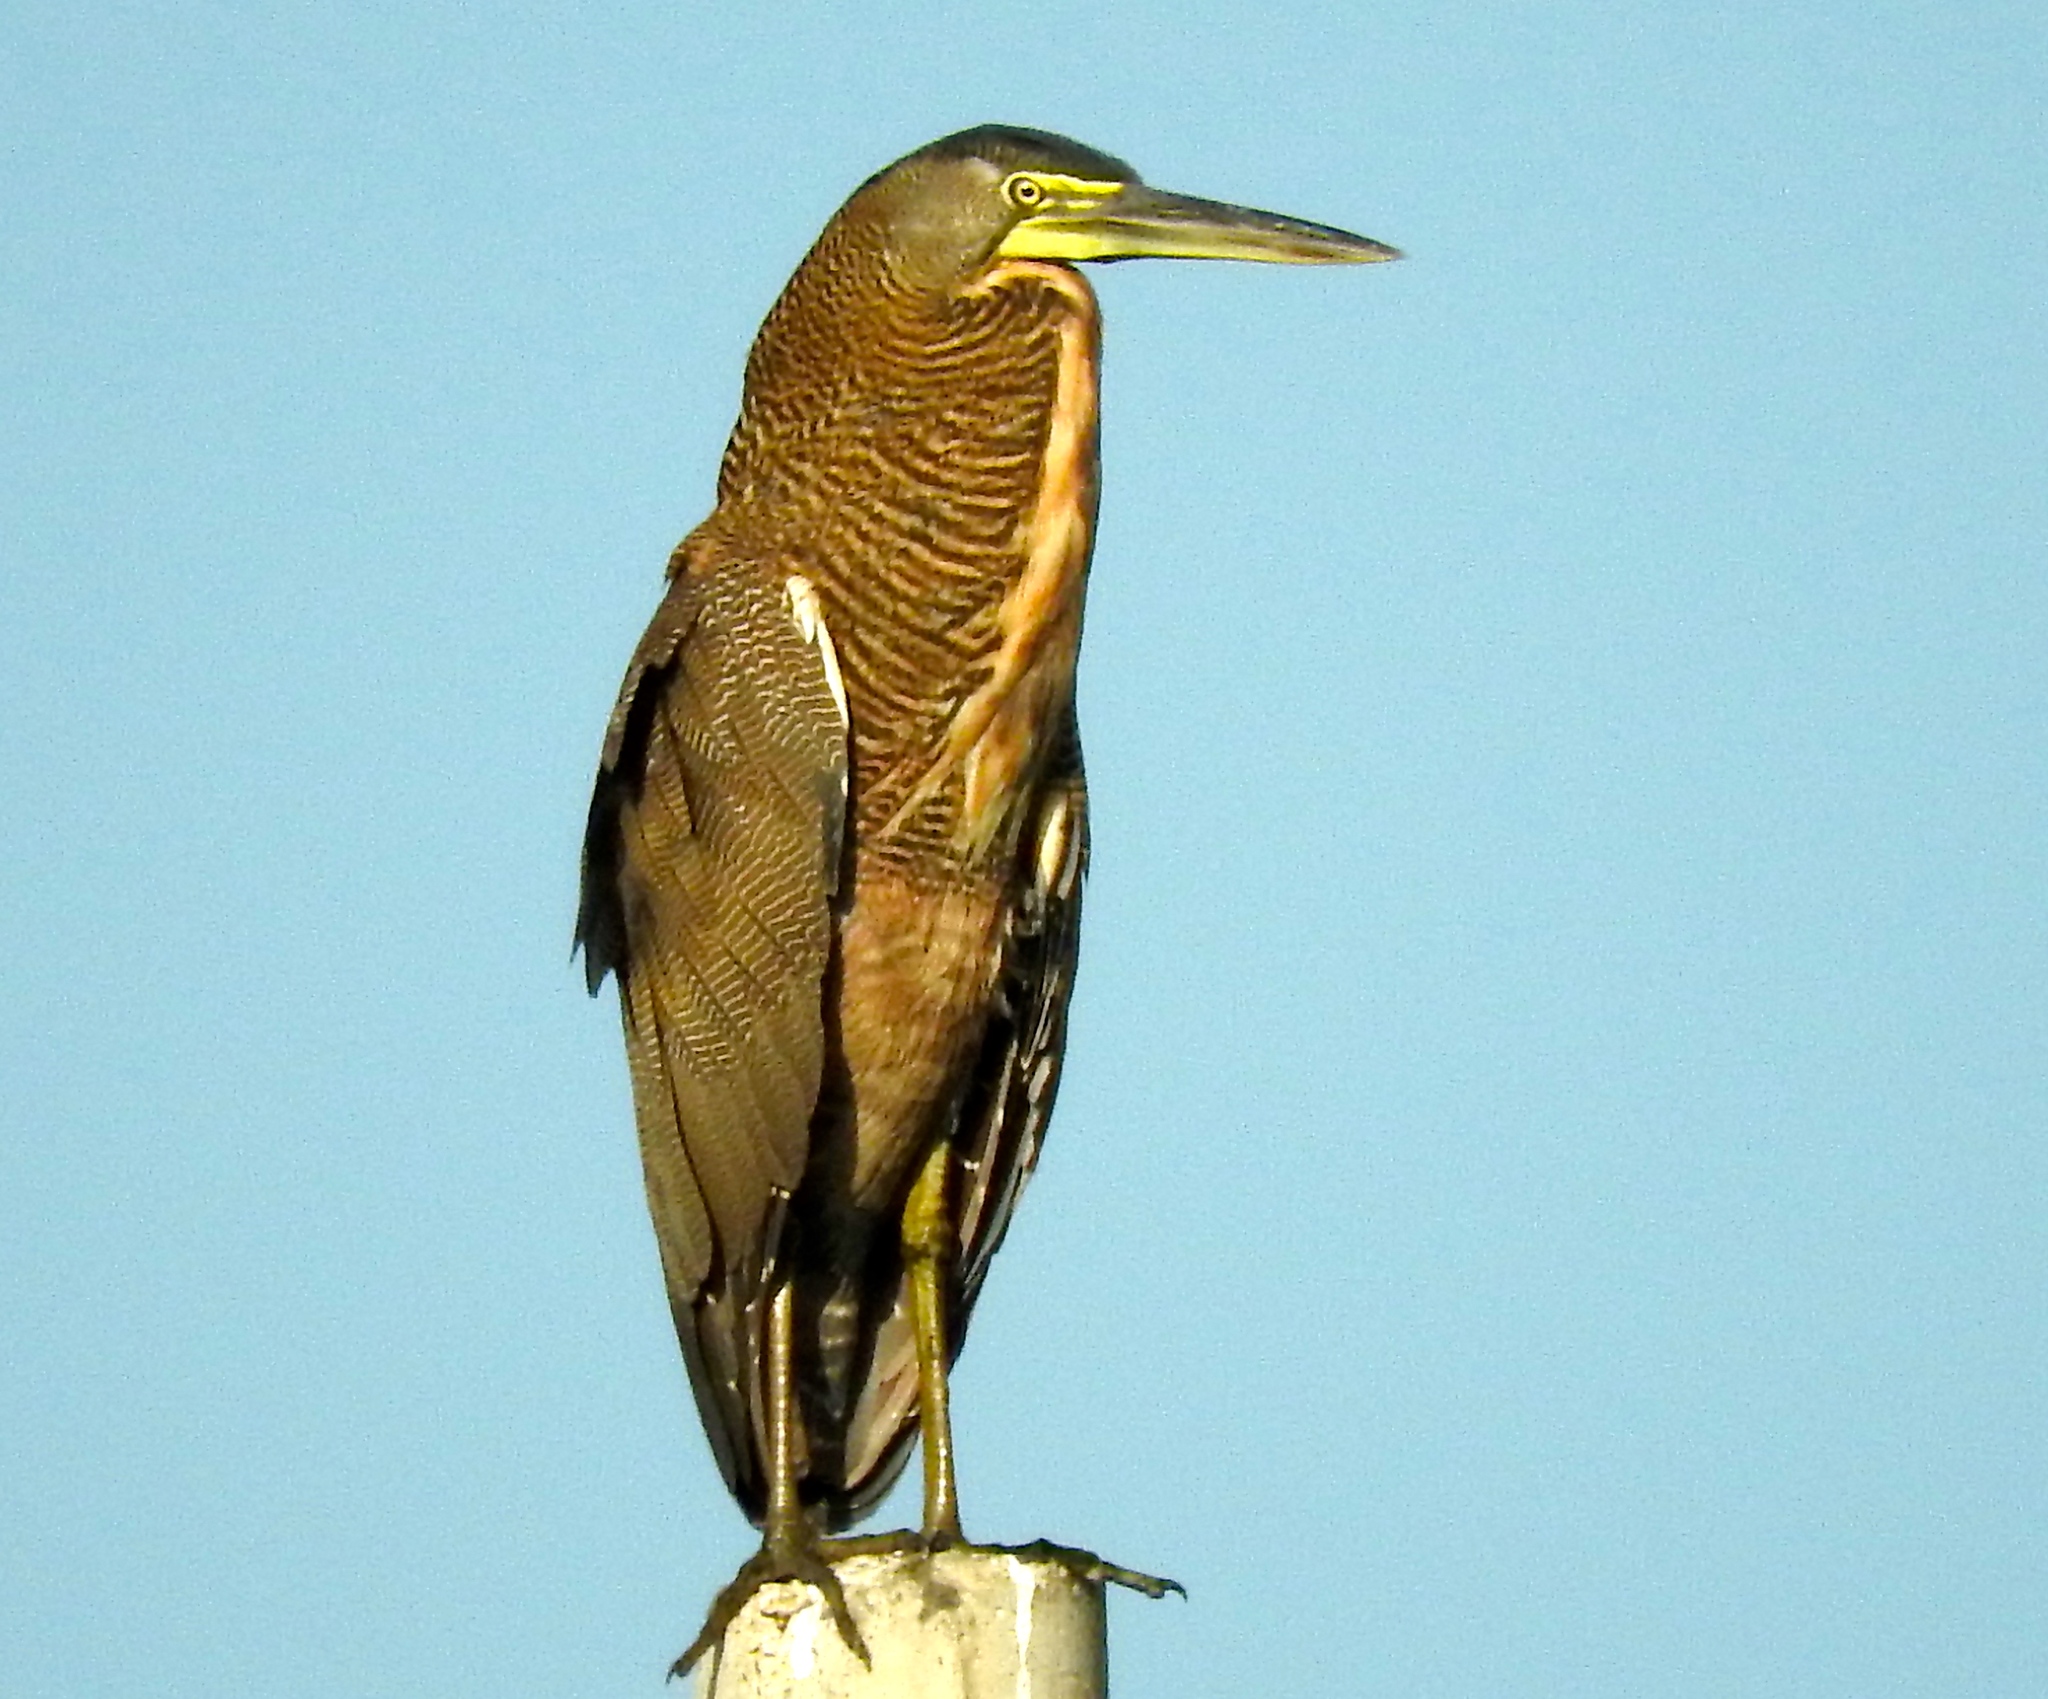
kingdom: Animalia
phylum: Chordata
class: Aves
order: Pelecaniformes
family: Ardeidae
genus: Tigrisoma
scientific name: Tigrisoma mexicanum
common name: Bare-throated tiger-heron
